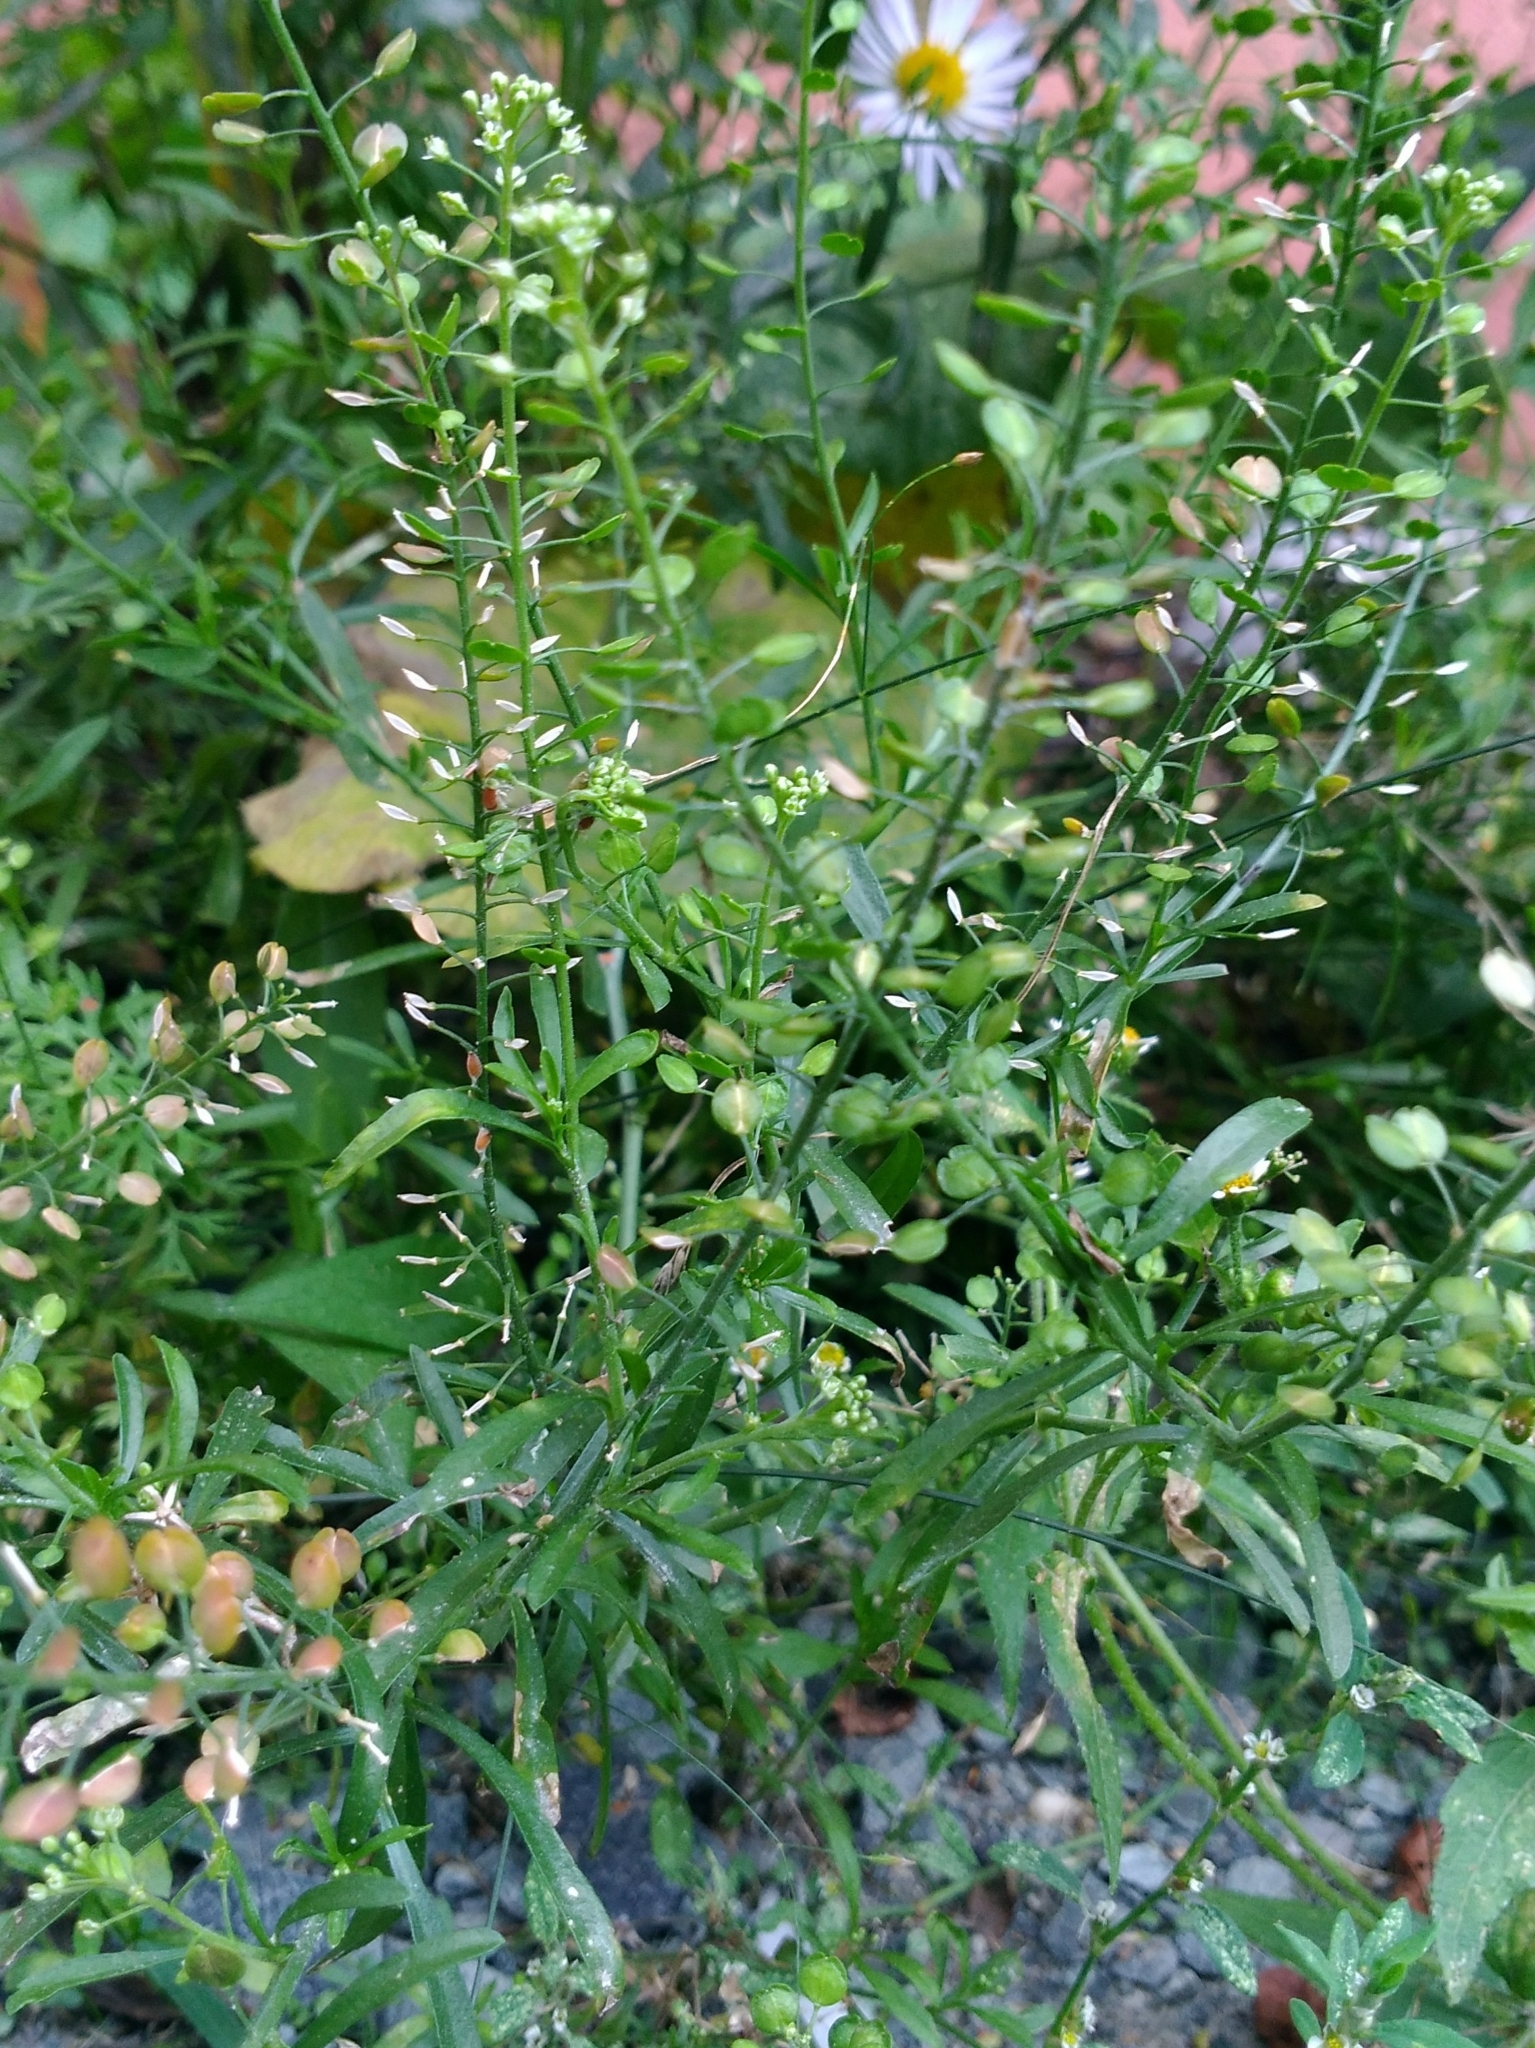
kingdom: Plantae
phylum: Tracheophyta
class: Magnoliopsida
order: Brassicales
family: Brassicaceae
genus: Lepidium
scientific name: Lepidium virginicum
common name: Least pepperwort
